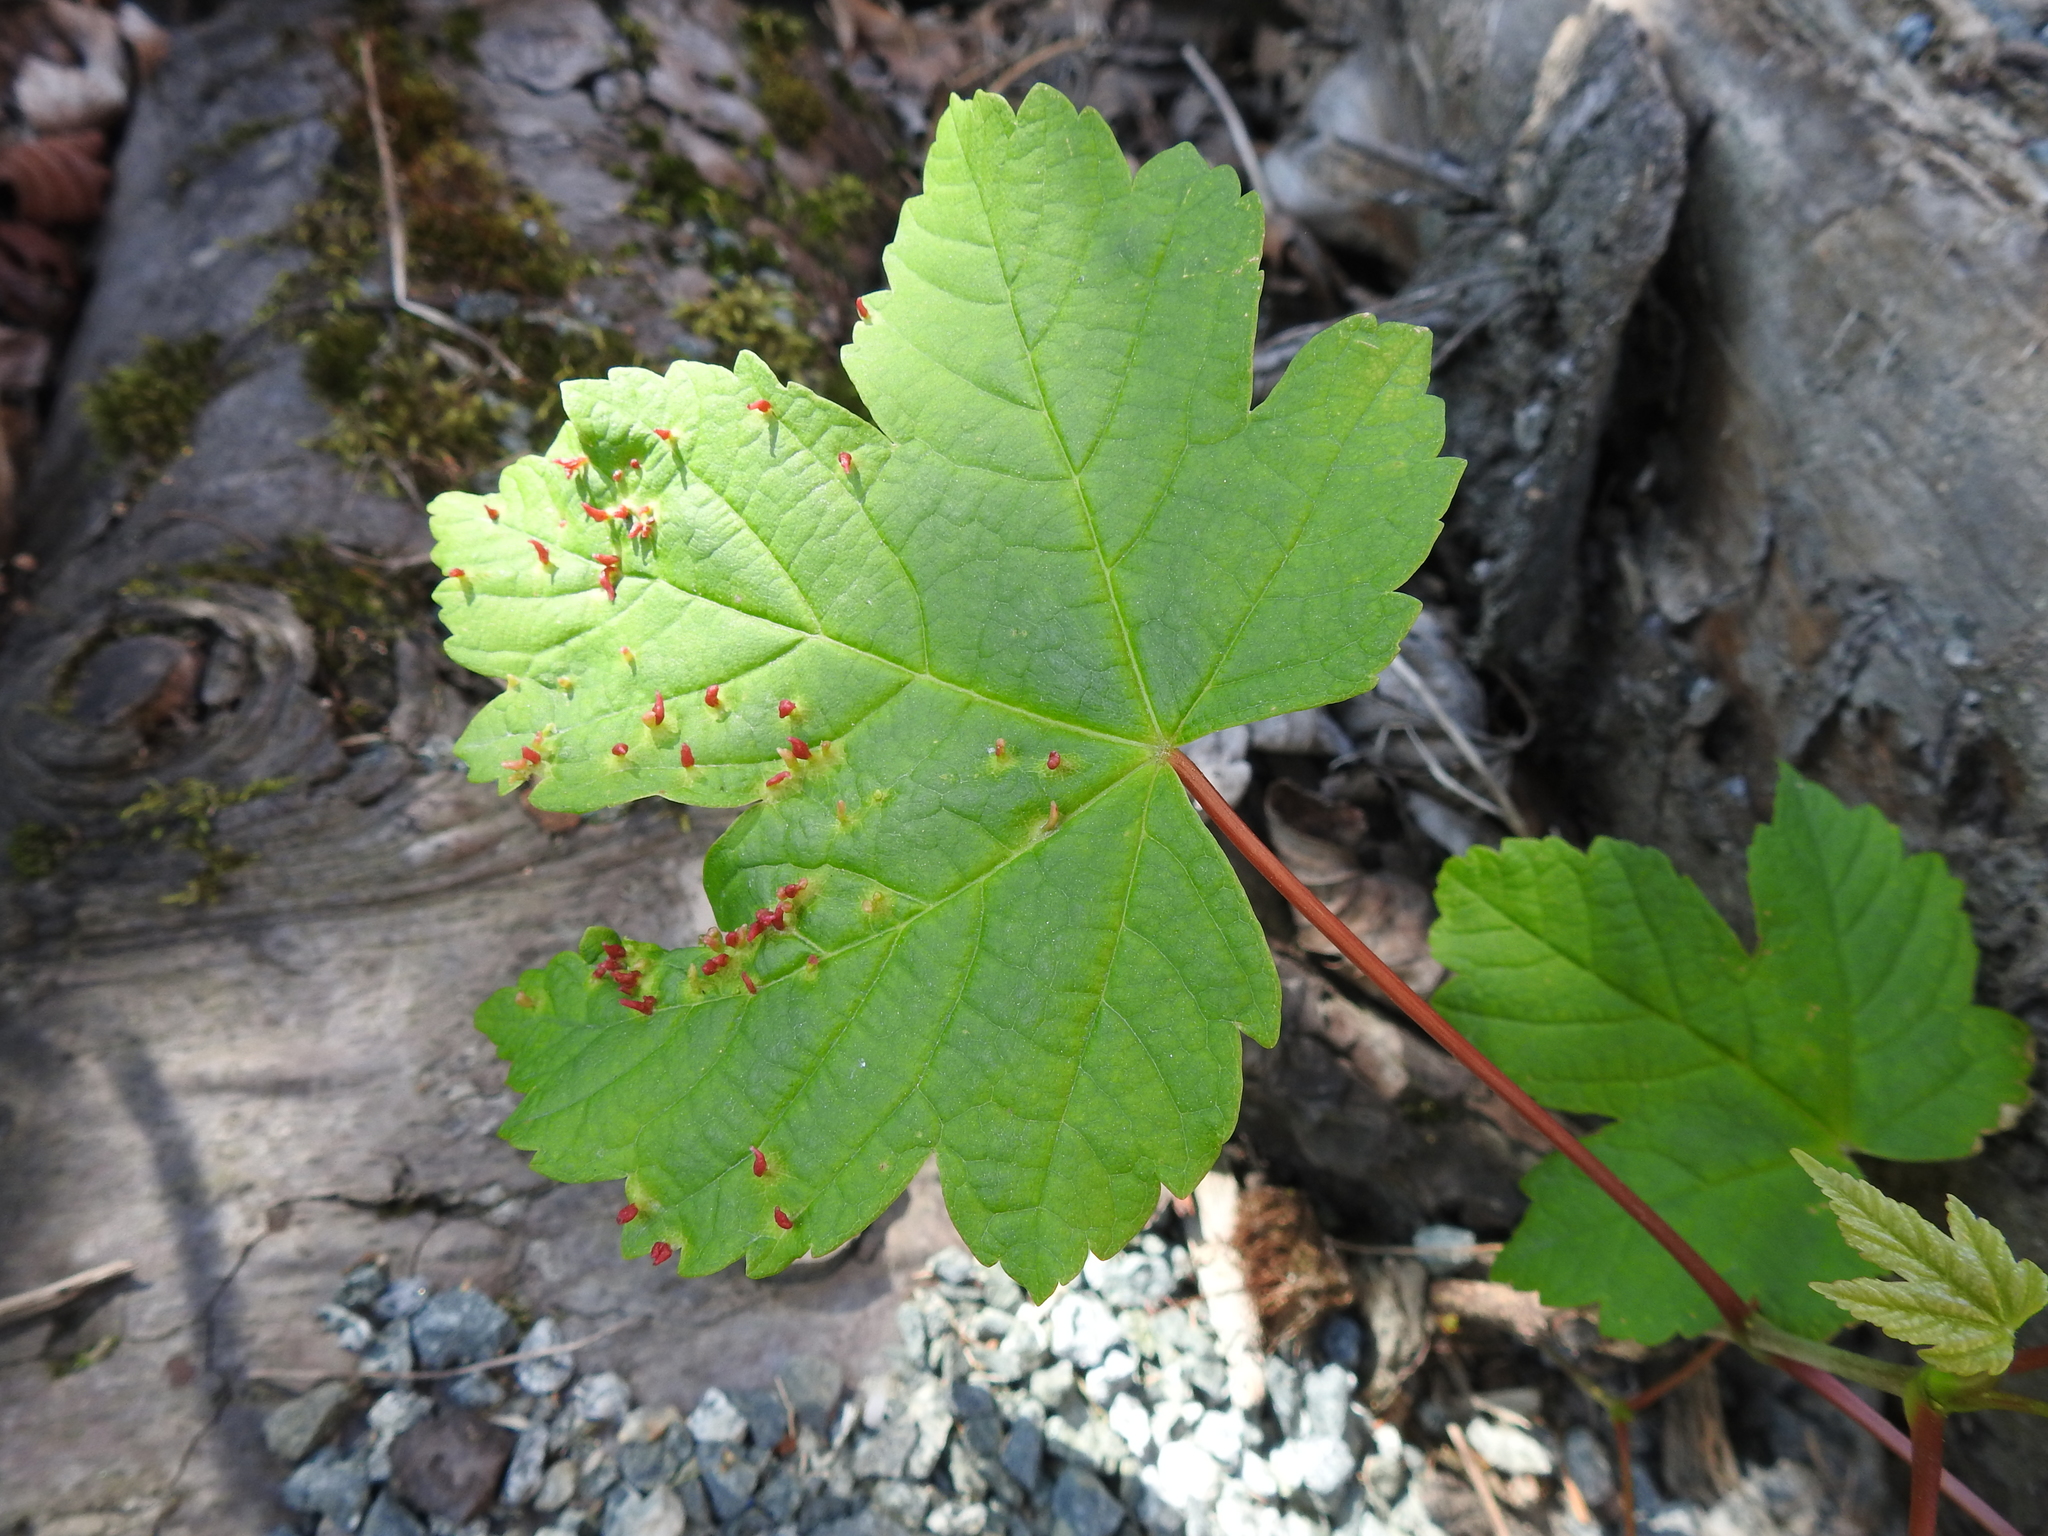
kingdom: Plantae
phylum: Tracheophyta
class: Magnoliopsida
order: Sapindales
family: Sapindaceae
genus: Acer
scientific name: Acer pseudoplatanus
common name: Sycamore
